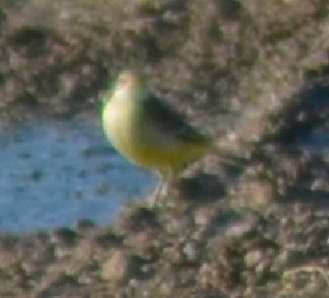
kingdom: Animalia
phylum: Chordata
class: Aves
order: Passeriformes
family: Motacillidae
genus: Motacilla
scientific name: Motacilla flava
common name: Western yellow wagtail
